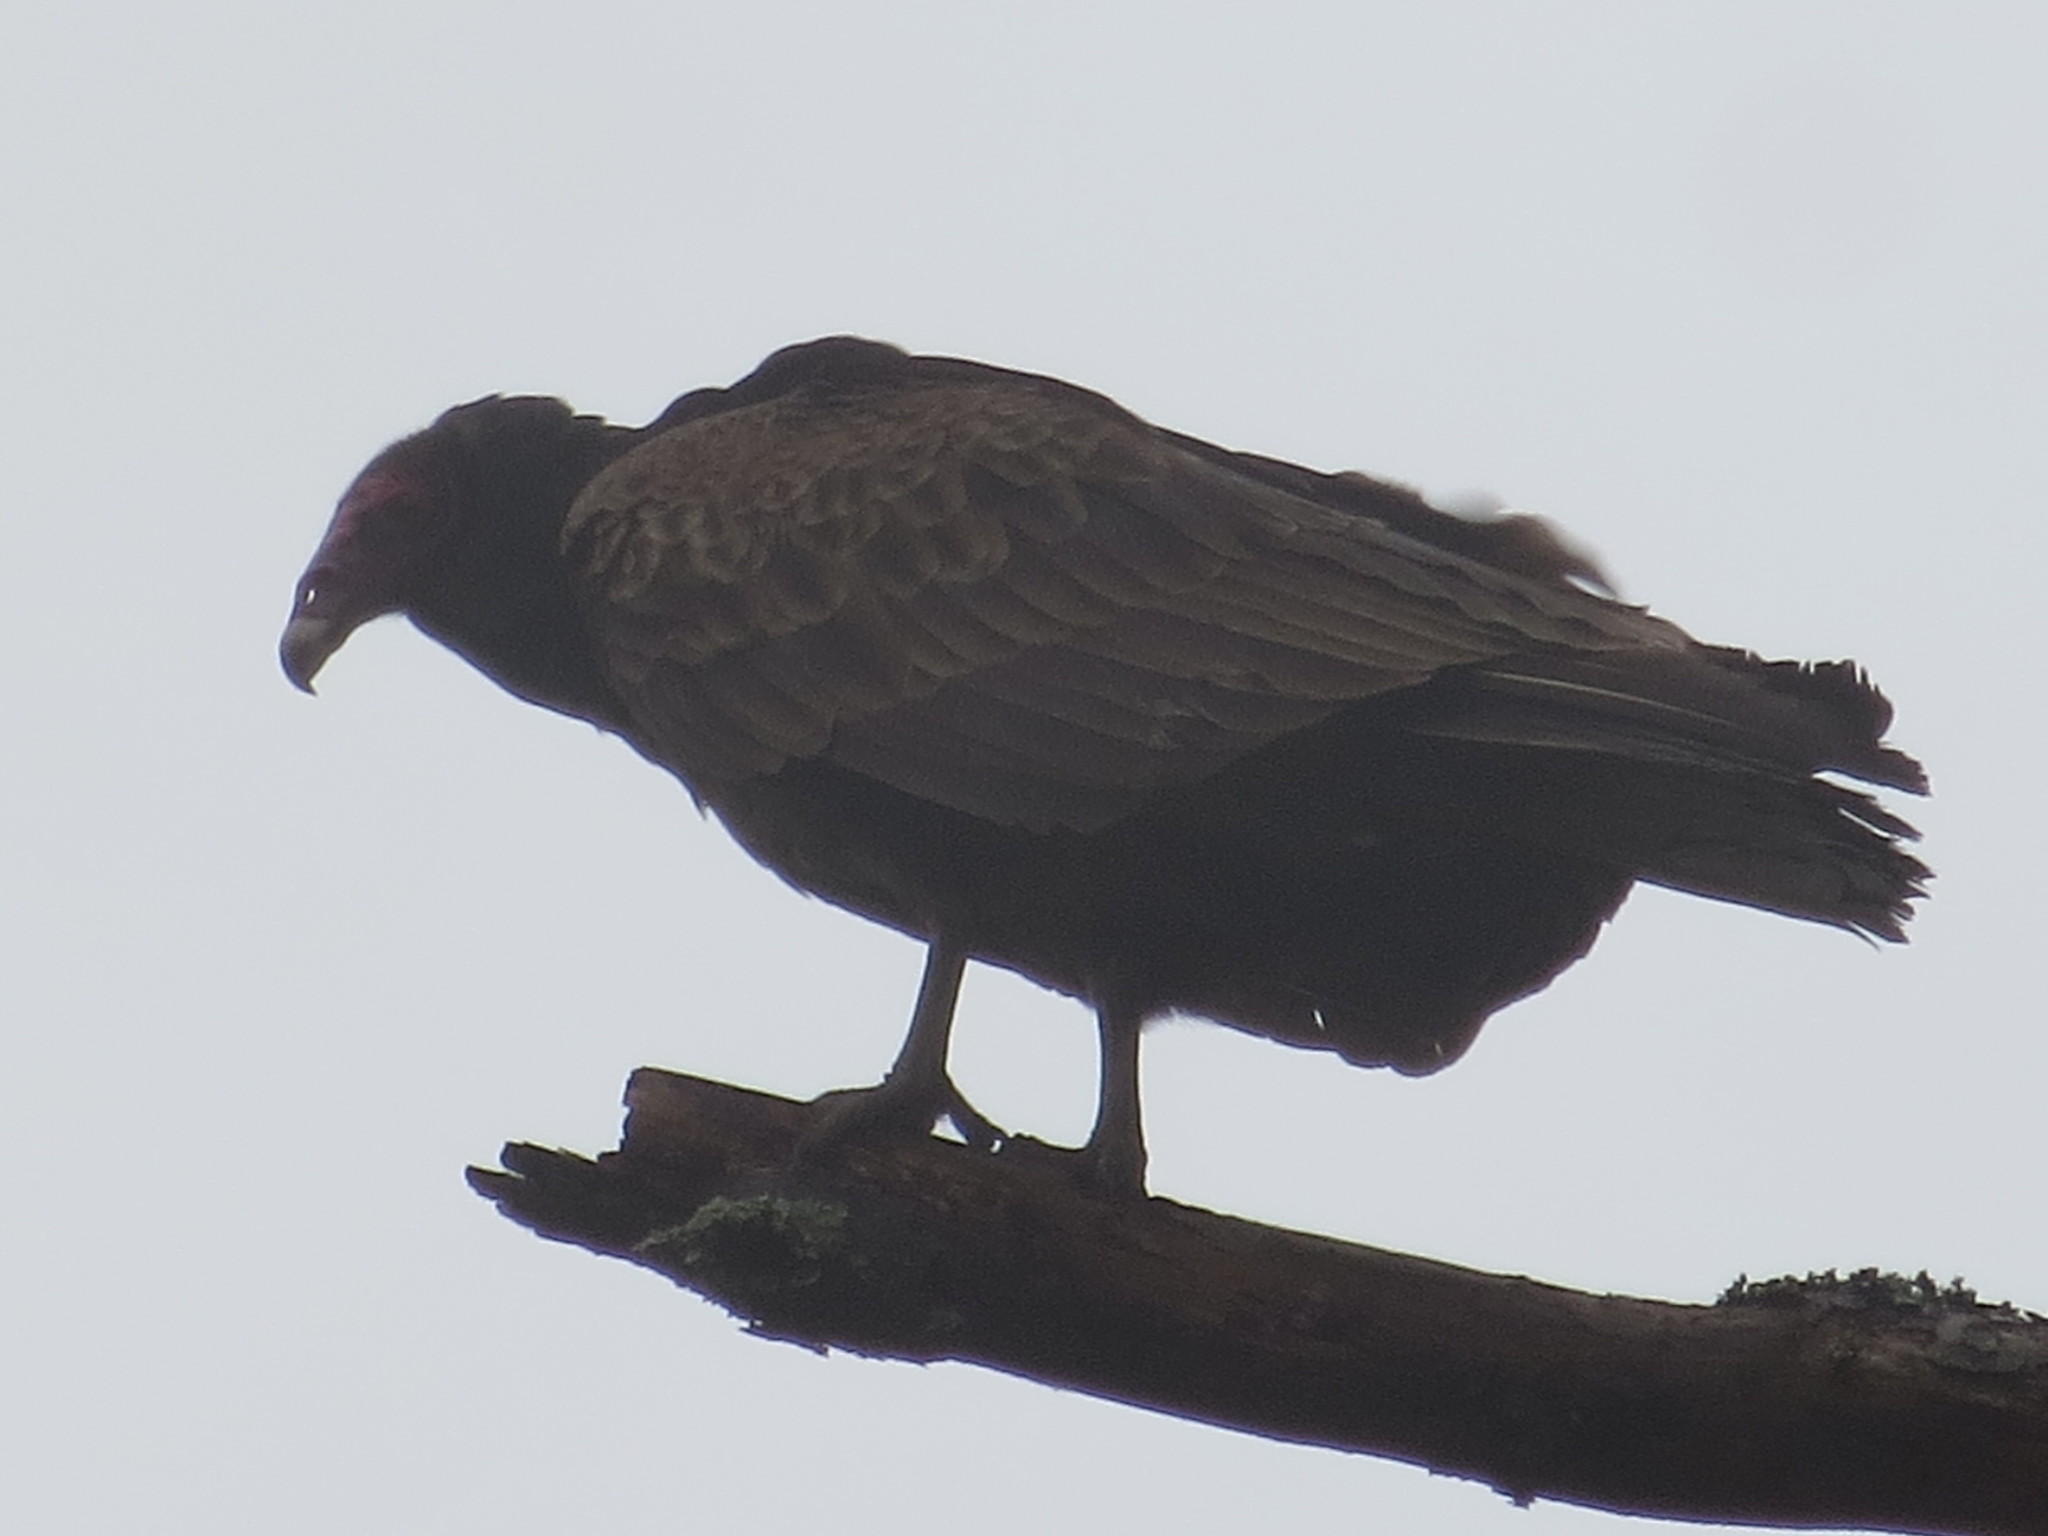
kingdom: Animalia
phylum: Chordata
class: Aves
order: Accipitriformes
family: Cathartidae
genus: Cathartes
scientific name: Cathartes aura
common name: Turkey vulture
